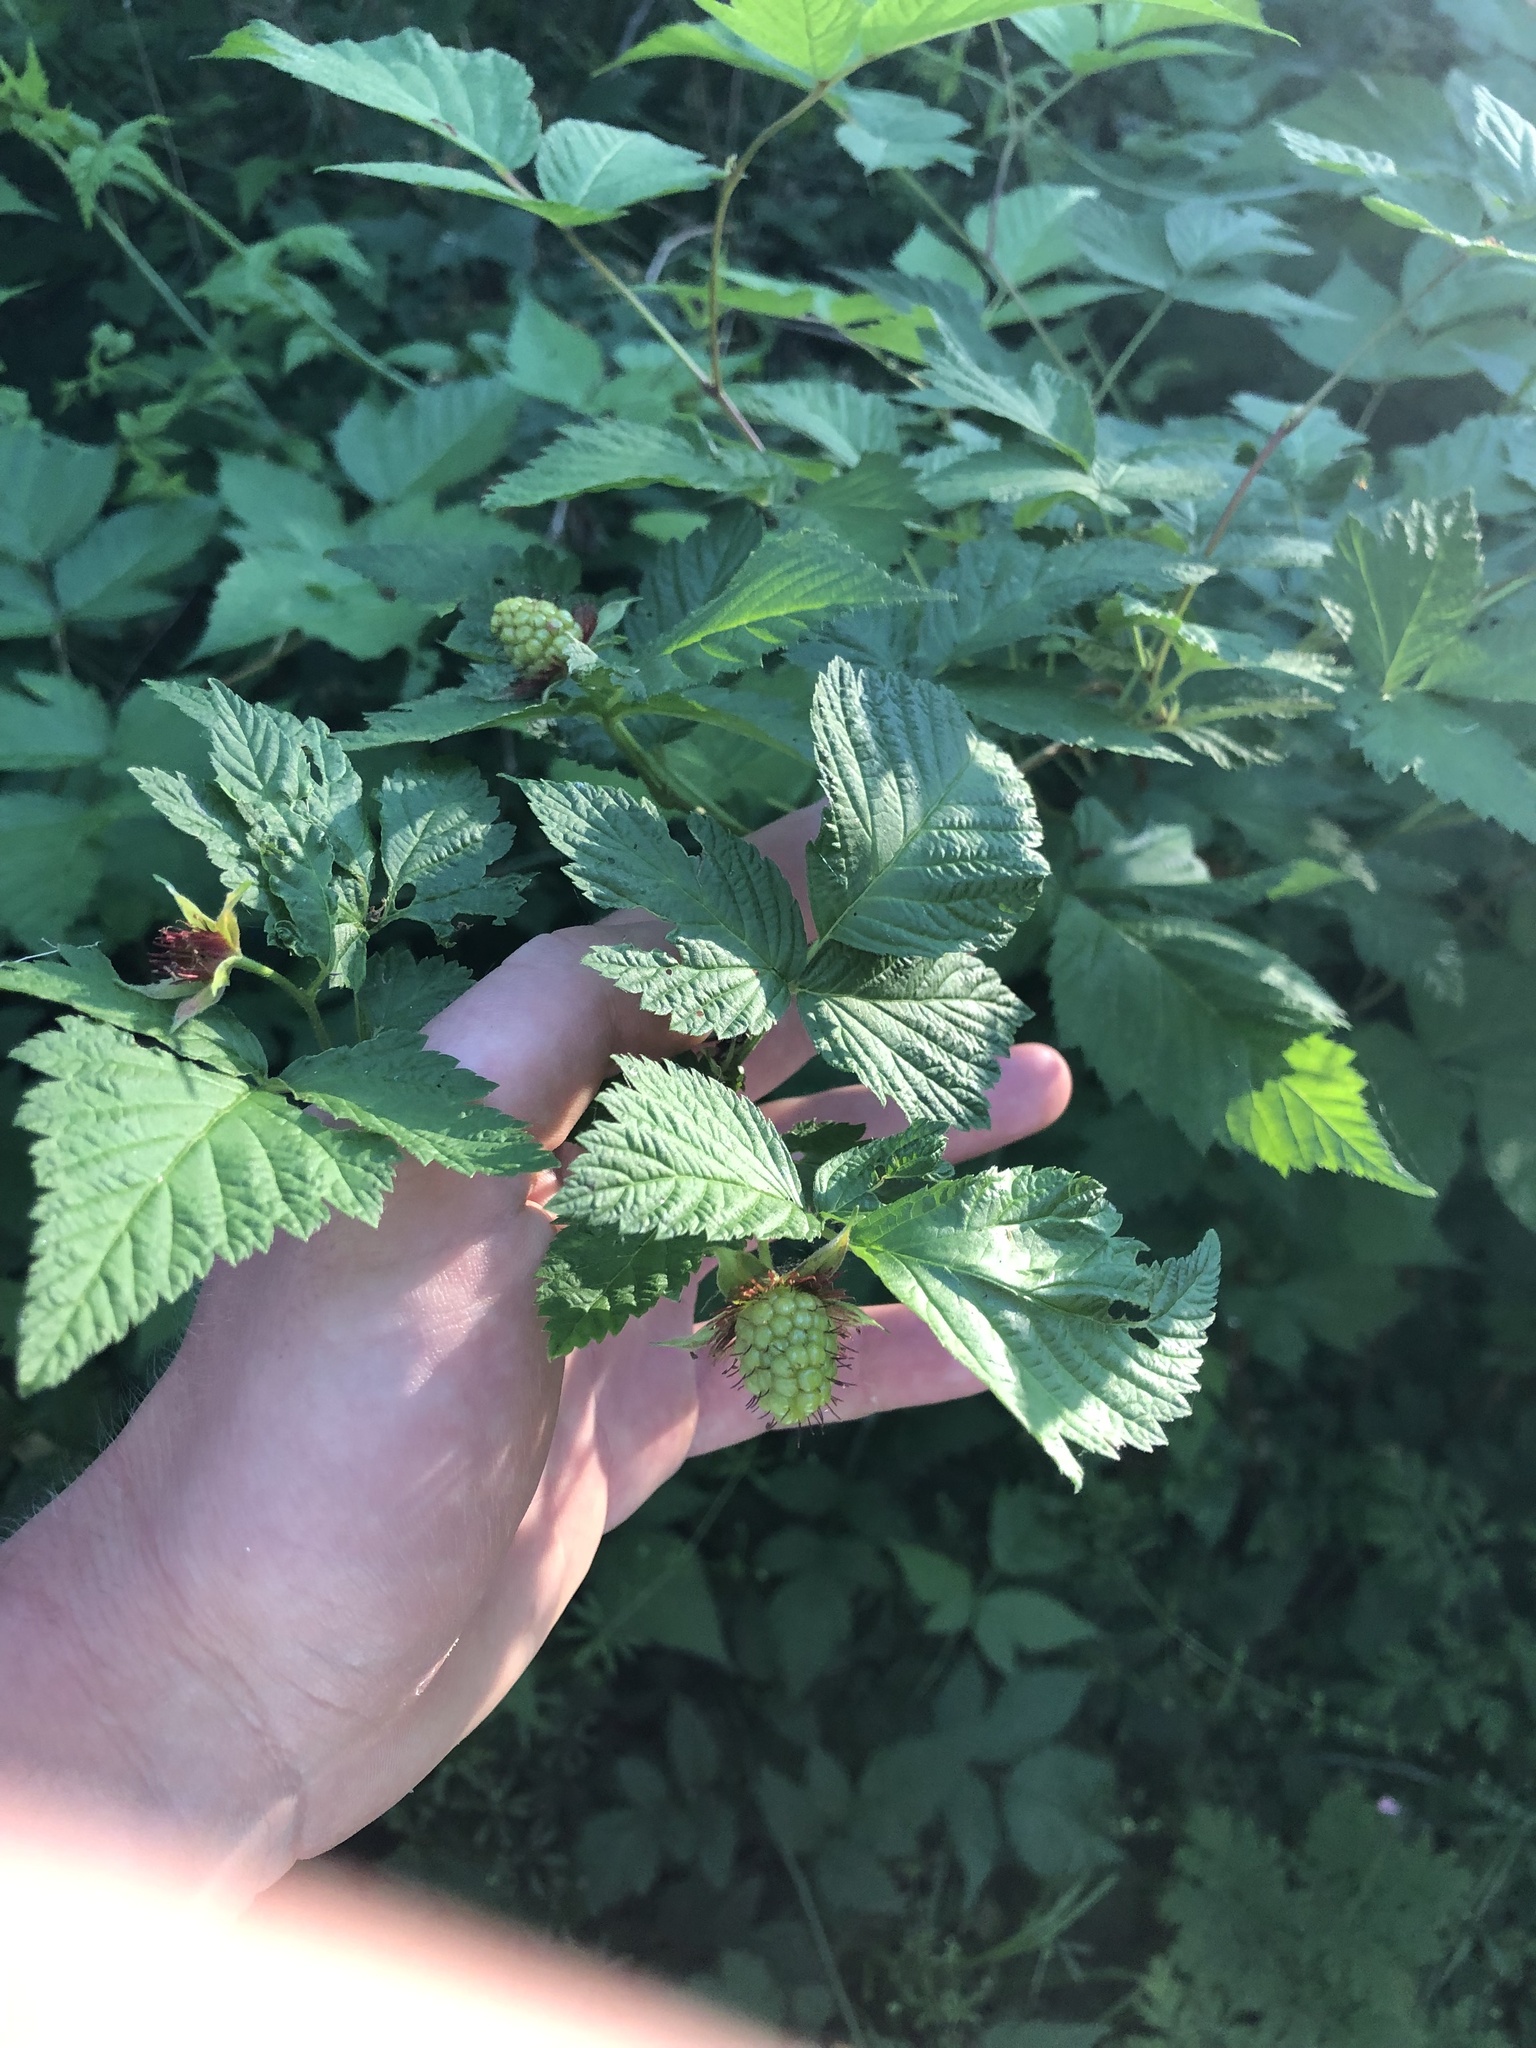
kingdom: Plantae
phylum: Tracheophyta
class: Magnoliopsida
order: Rosales
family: Rosaceae
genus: Rubus
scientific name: Rubus spectabilis
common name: Salmonberry
